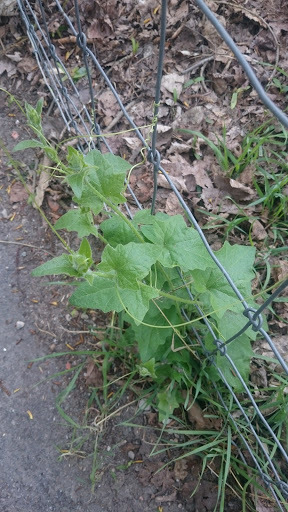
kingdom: Plantae
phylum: Tracheophyta
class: Magnoliopsida
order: Cucurbitales
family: Cucurbitaceae
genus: Bryonia
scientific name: Bryonia dioica
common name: White bryony
